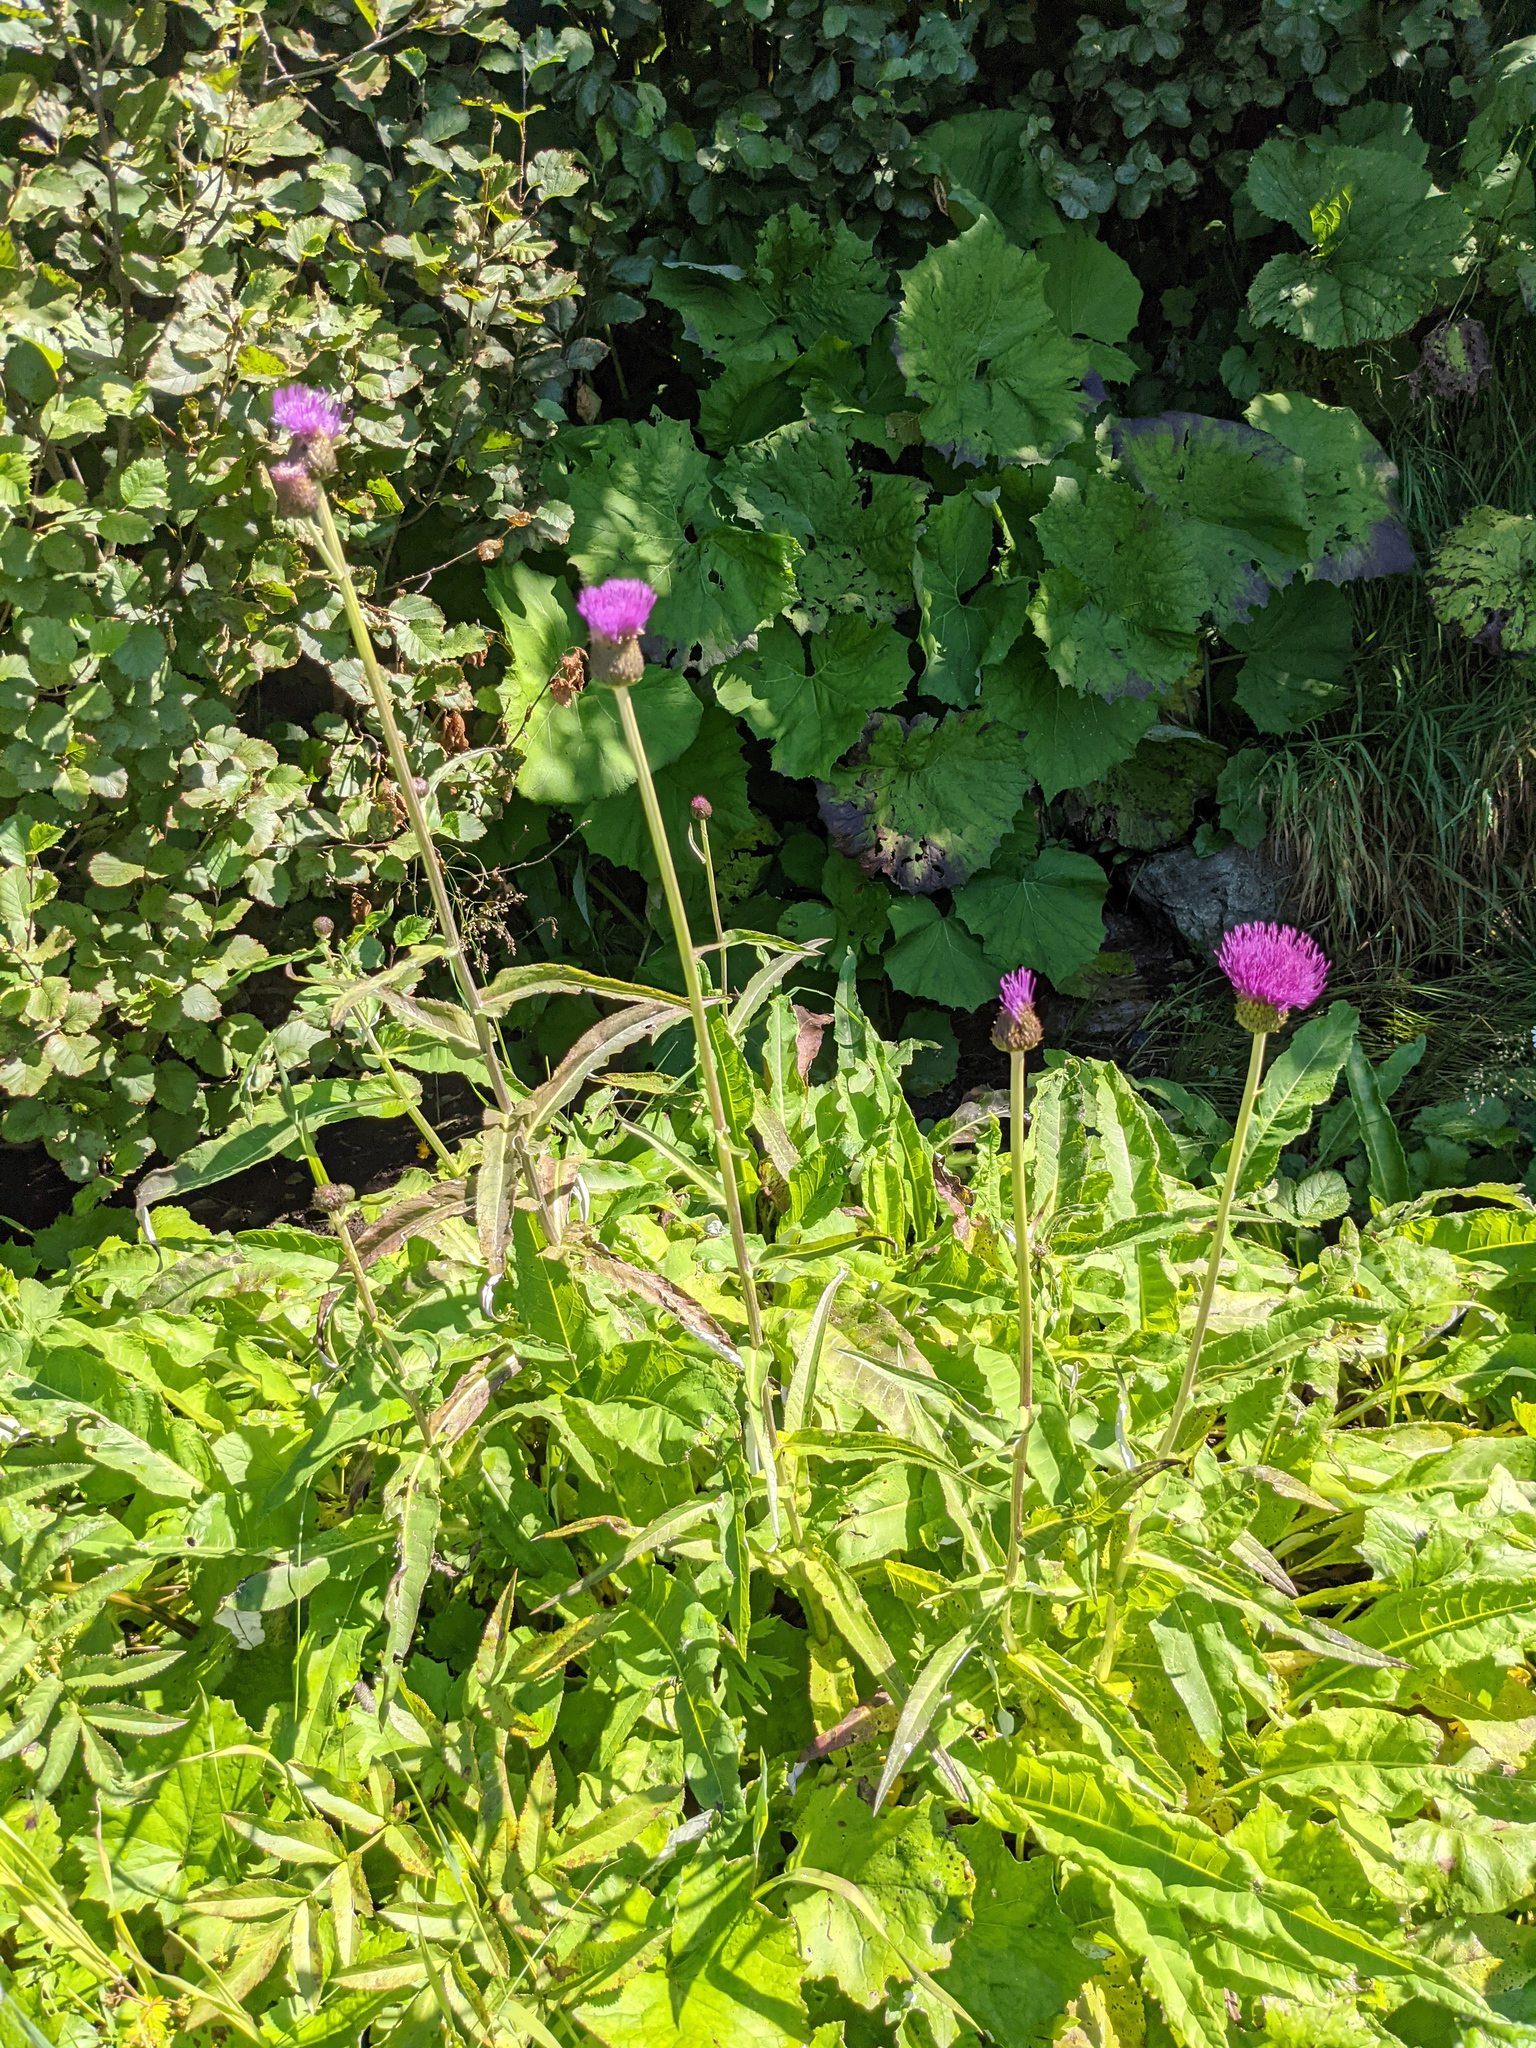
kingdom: Plantae
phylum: Tracheophyta
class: Magnoliopsida
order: Asterales
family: Asteraceae
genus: Cirsium
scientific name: Cirsium heterophyllum
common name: Melancholy thistle
